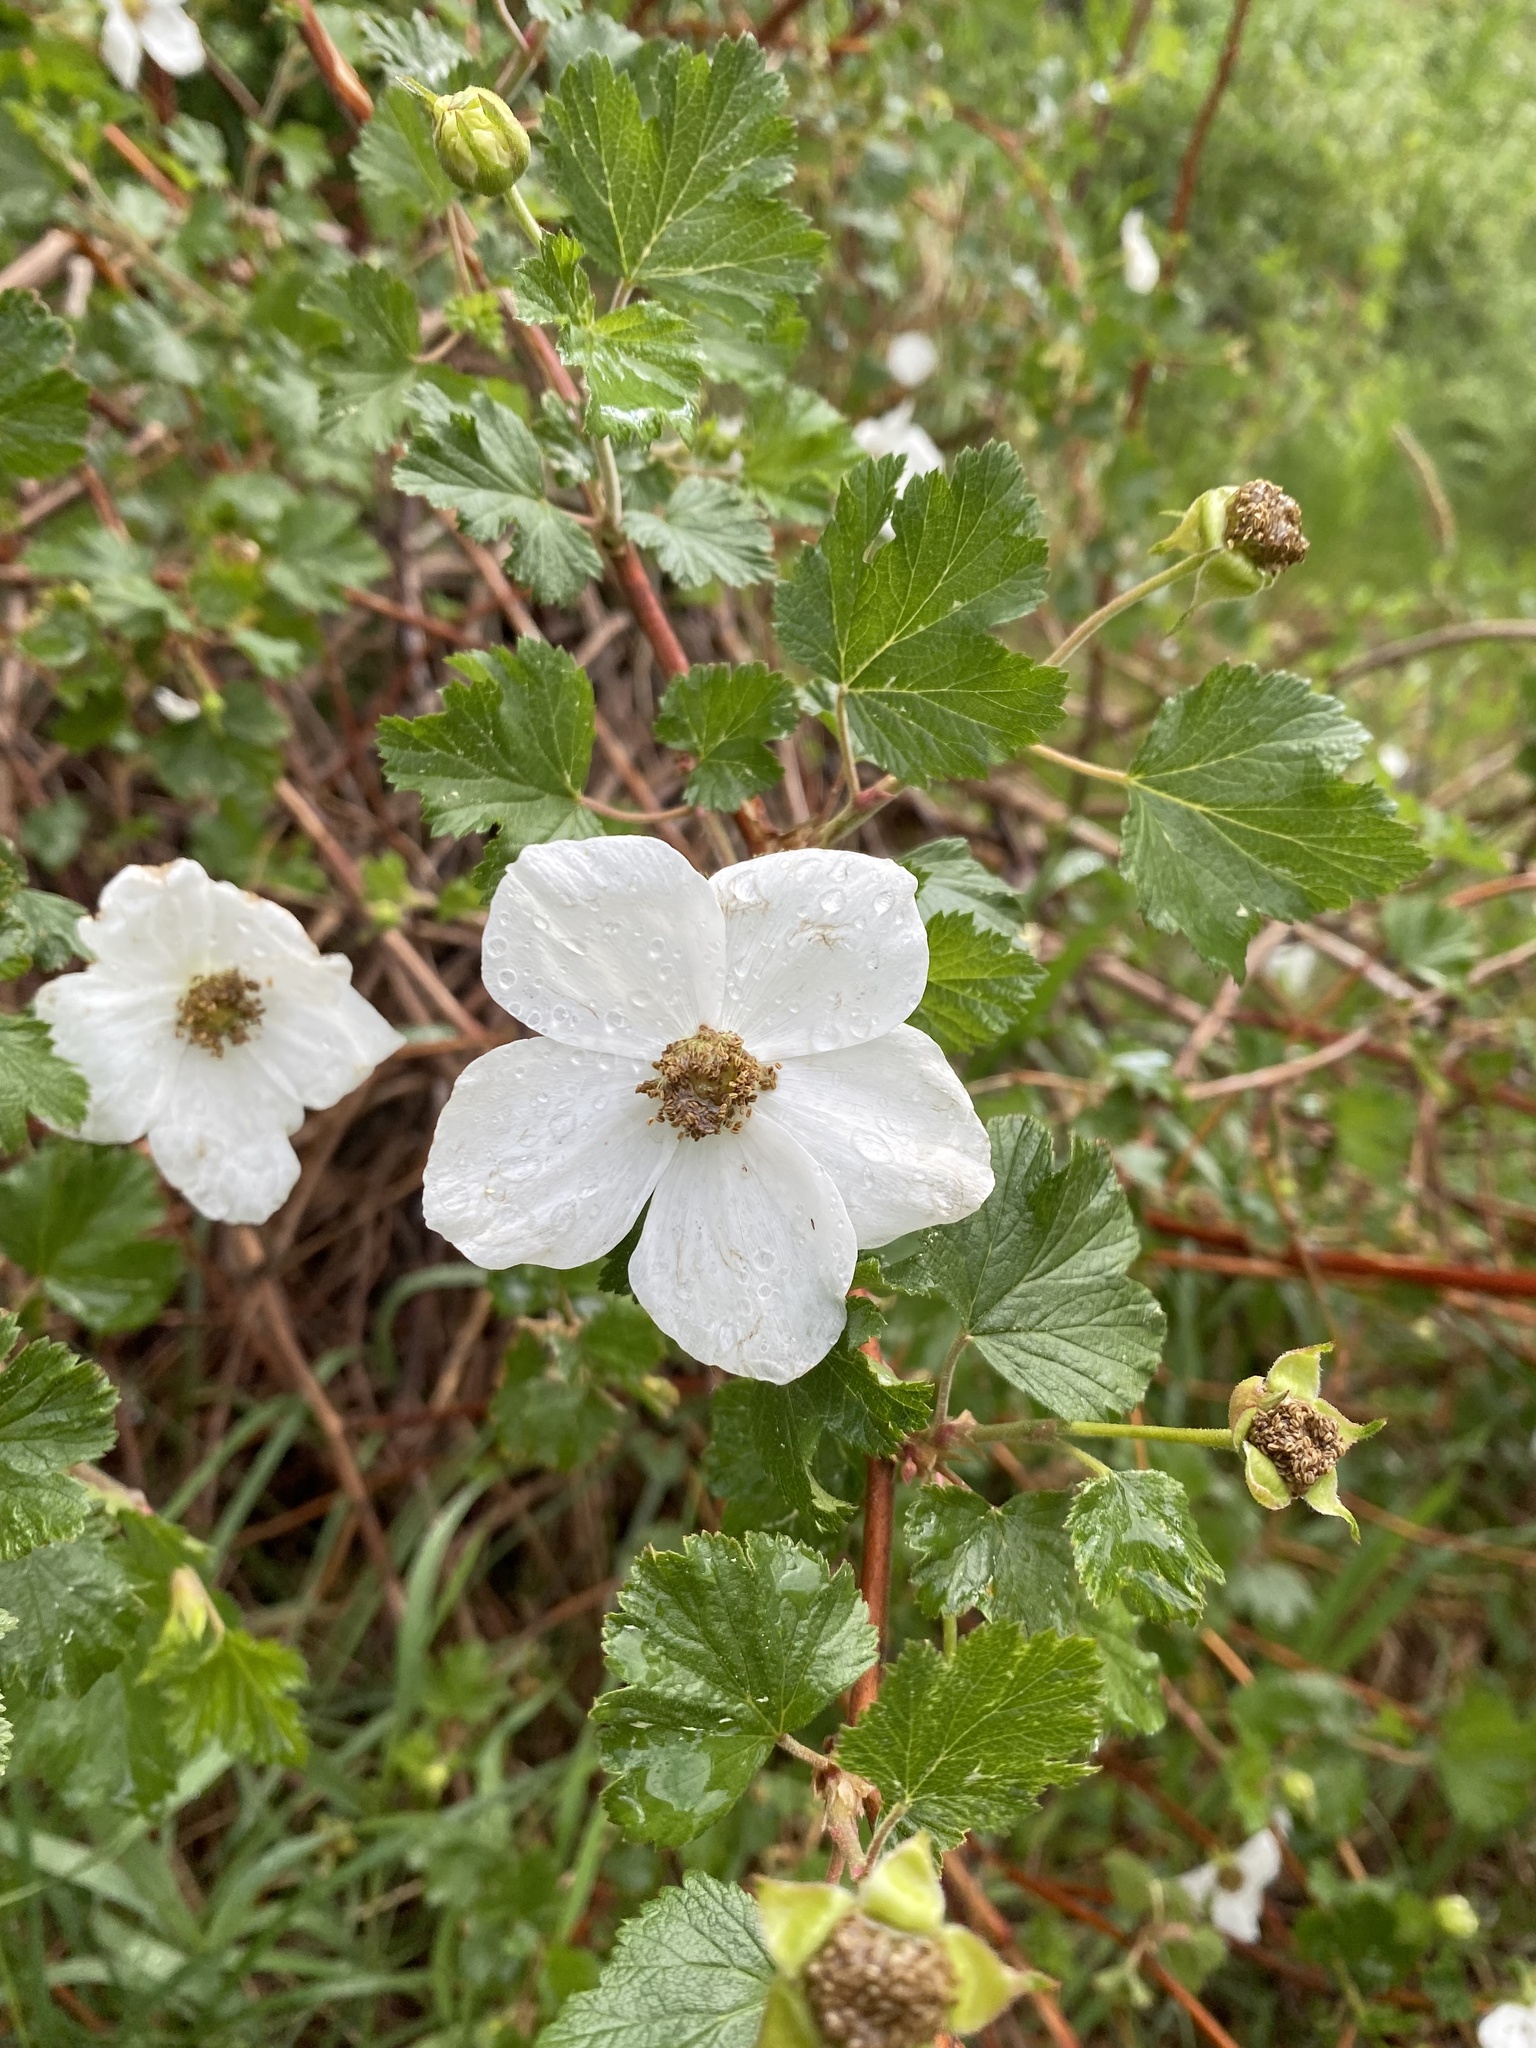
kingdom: Plantae
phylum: Tracheophyta
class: Magnoliopsida
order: Rosales
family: Rosaceae
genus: Rubus
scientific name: Rubus deliciosus
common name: Rocky mountain raspberry
